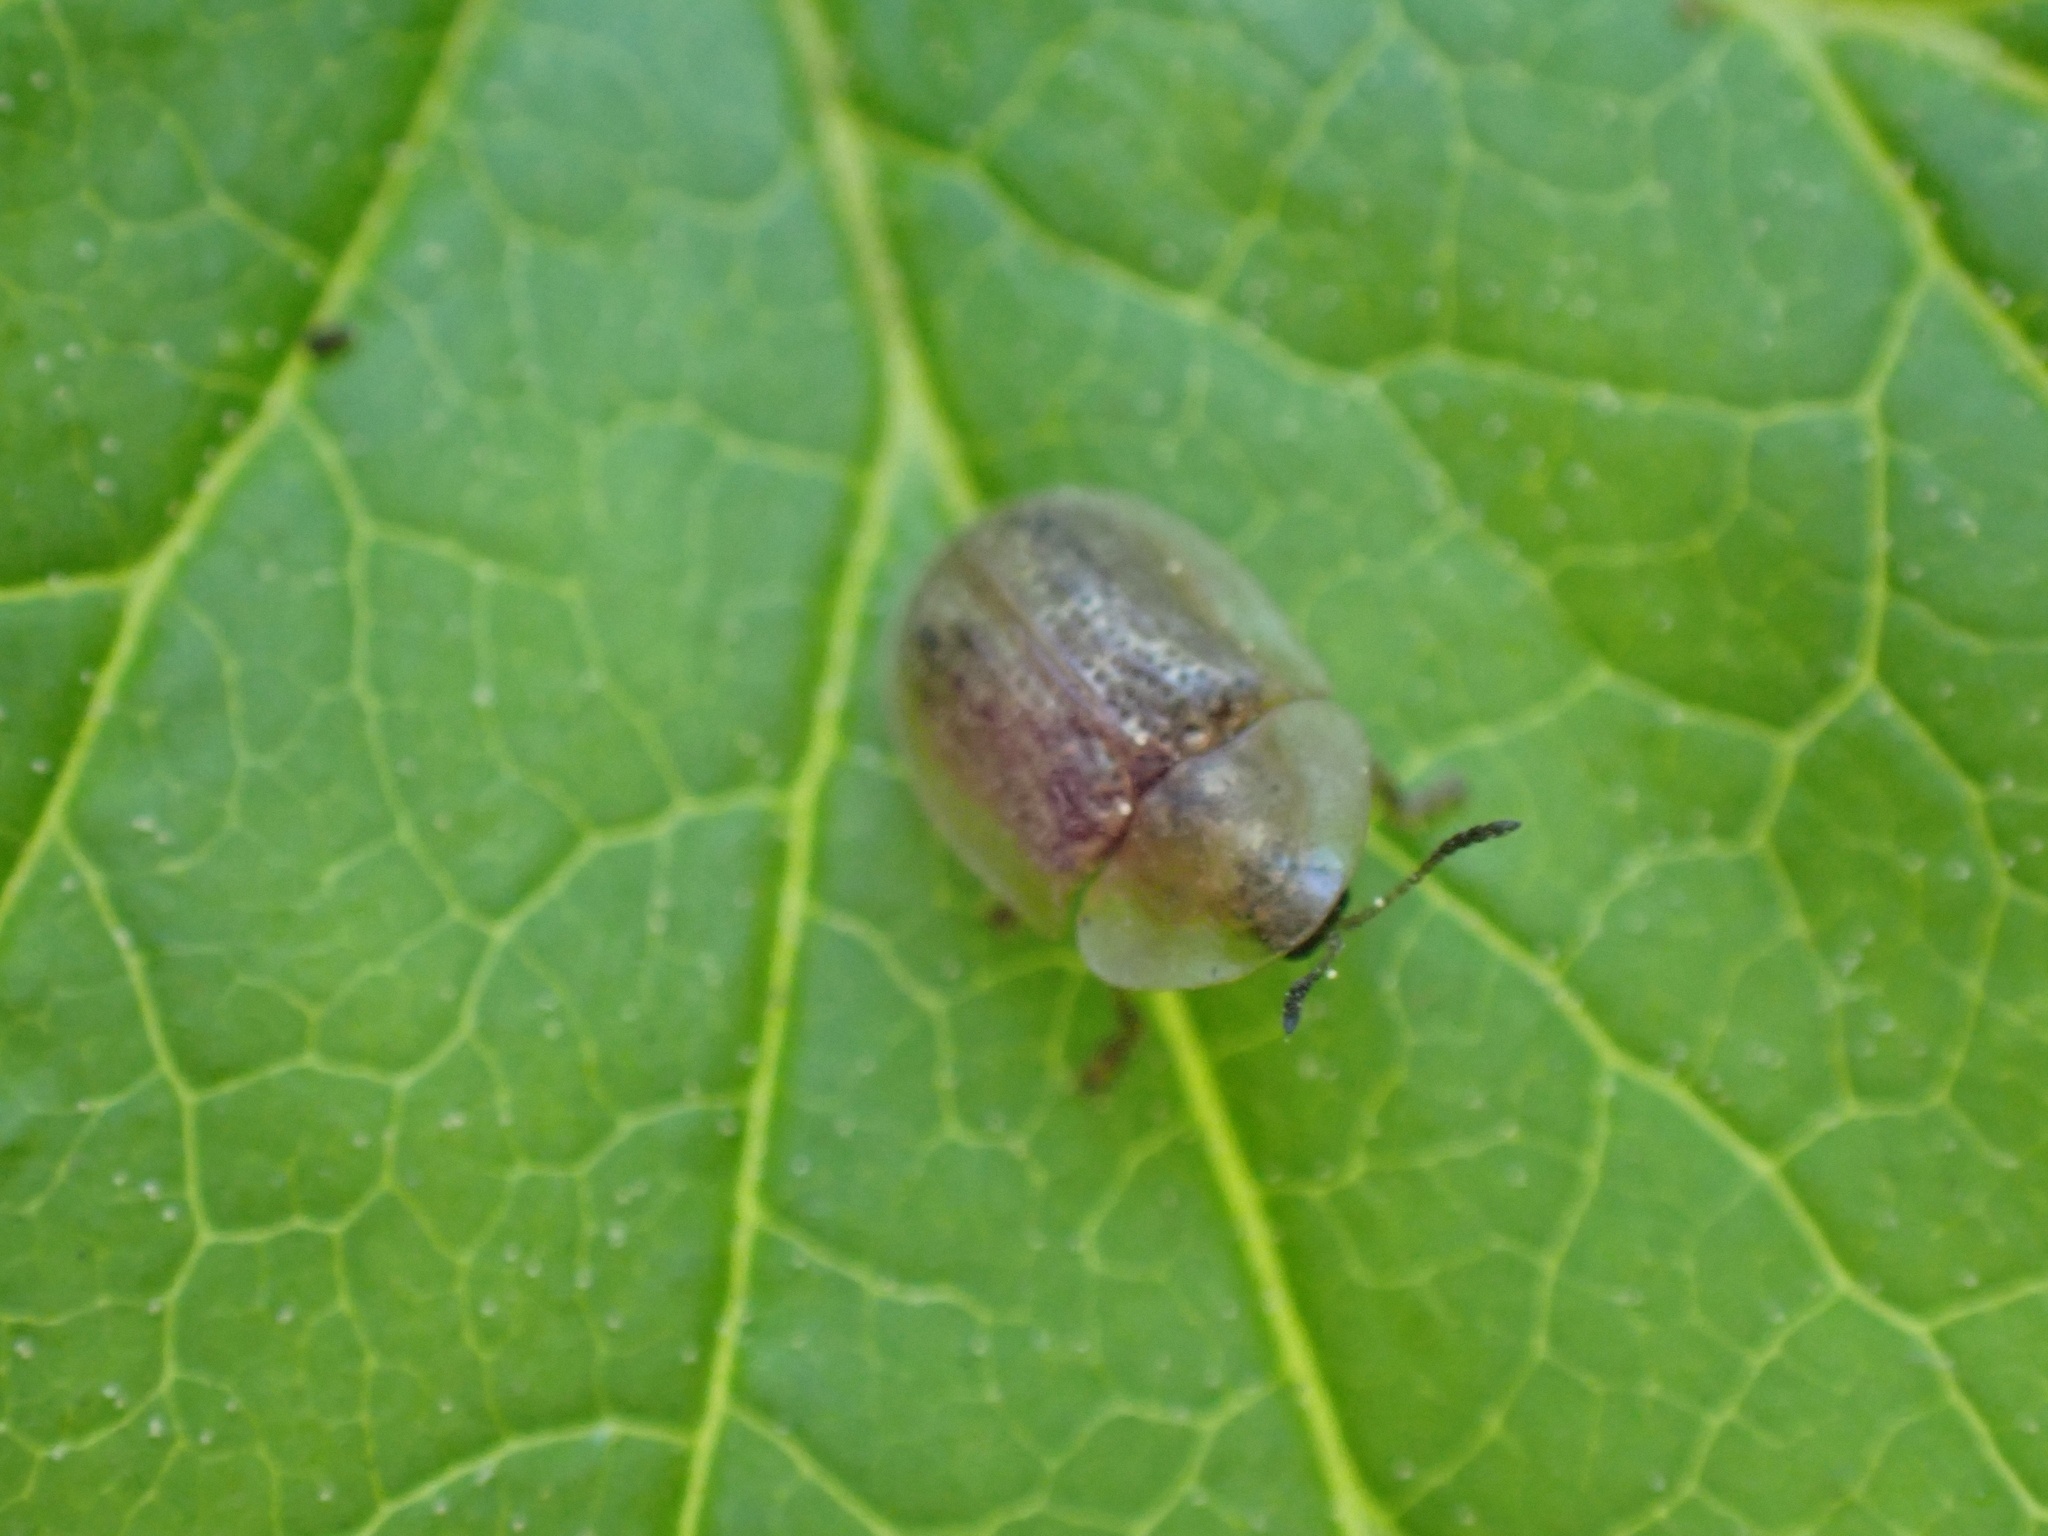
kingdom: Animalia
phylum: Arthropoda
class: Insecta
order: Coleoptera
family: Chrysomelidae
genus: Cassida
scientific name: Cassida flaveola
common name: Pale tortoise beetle
